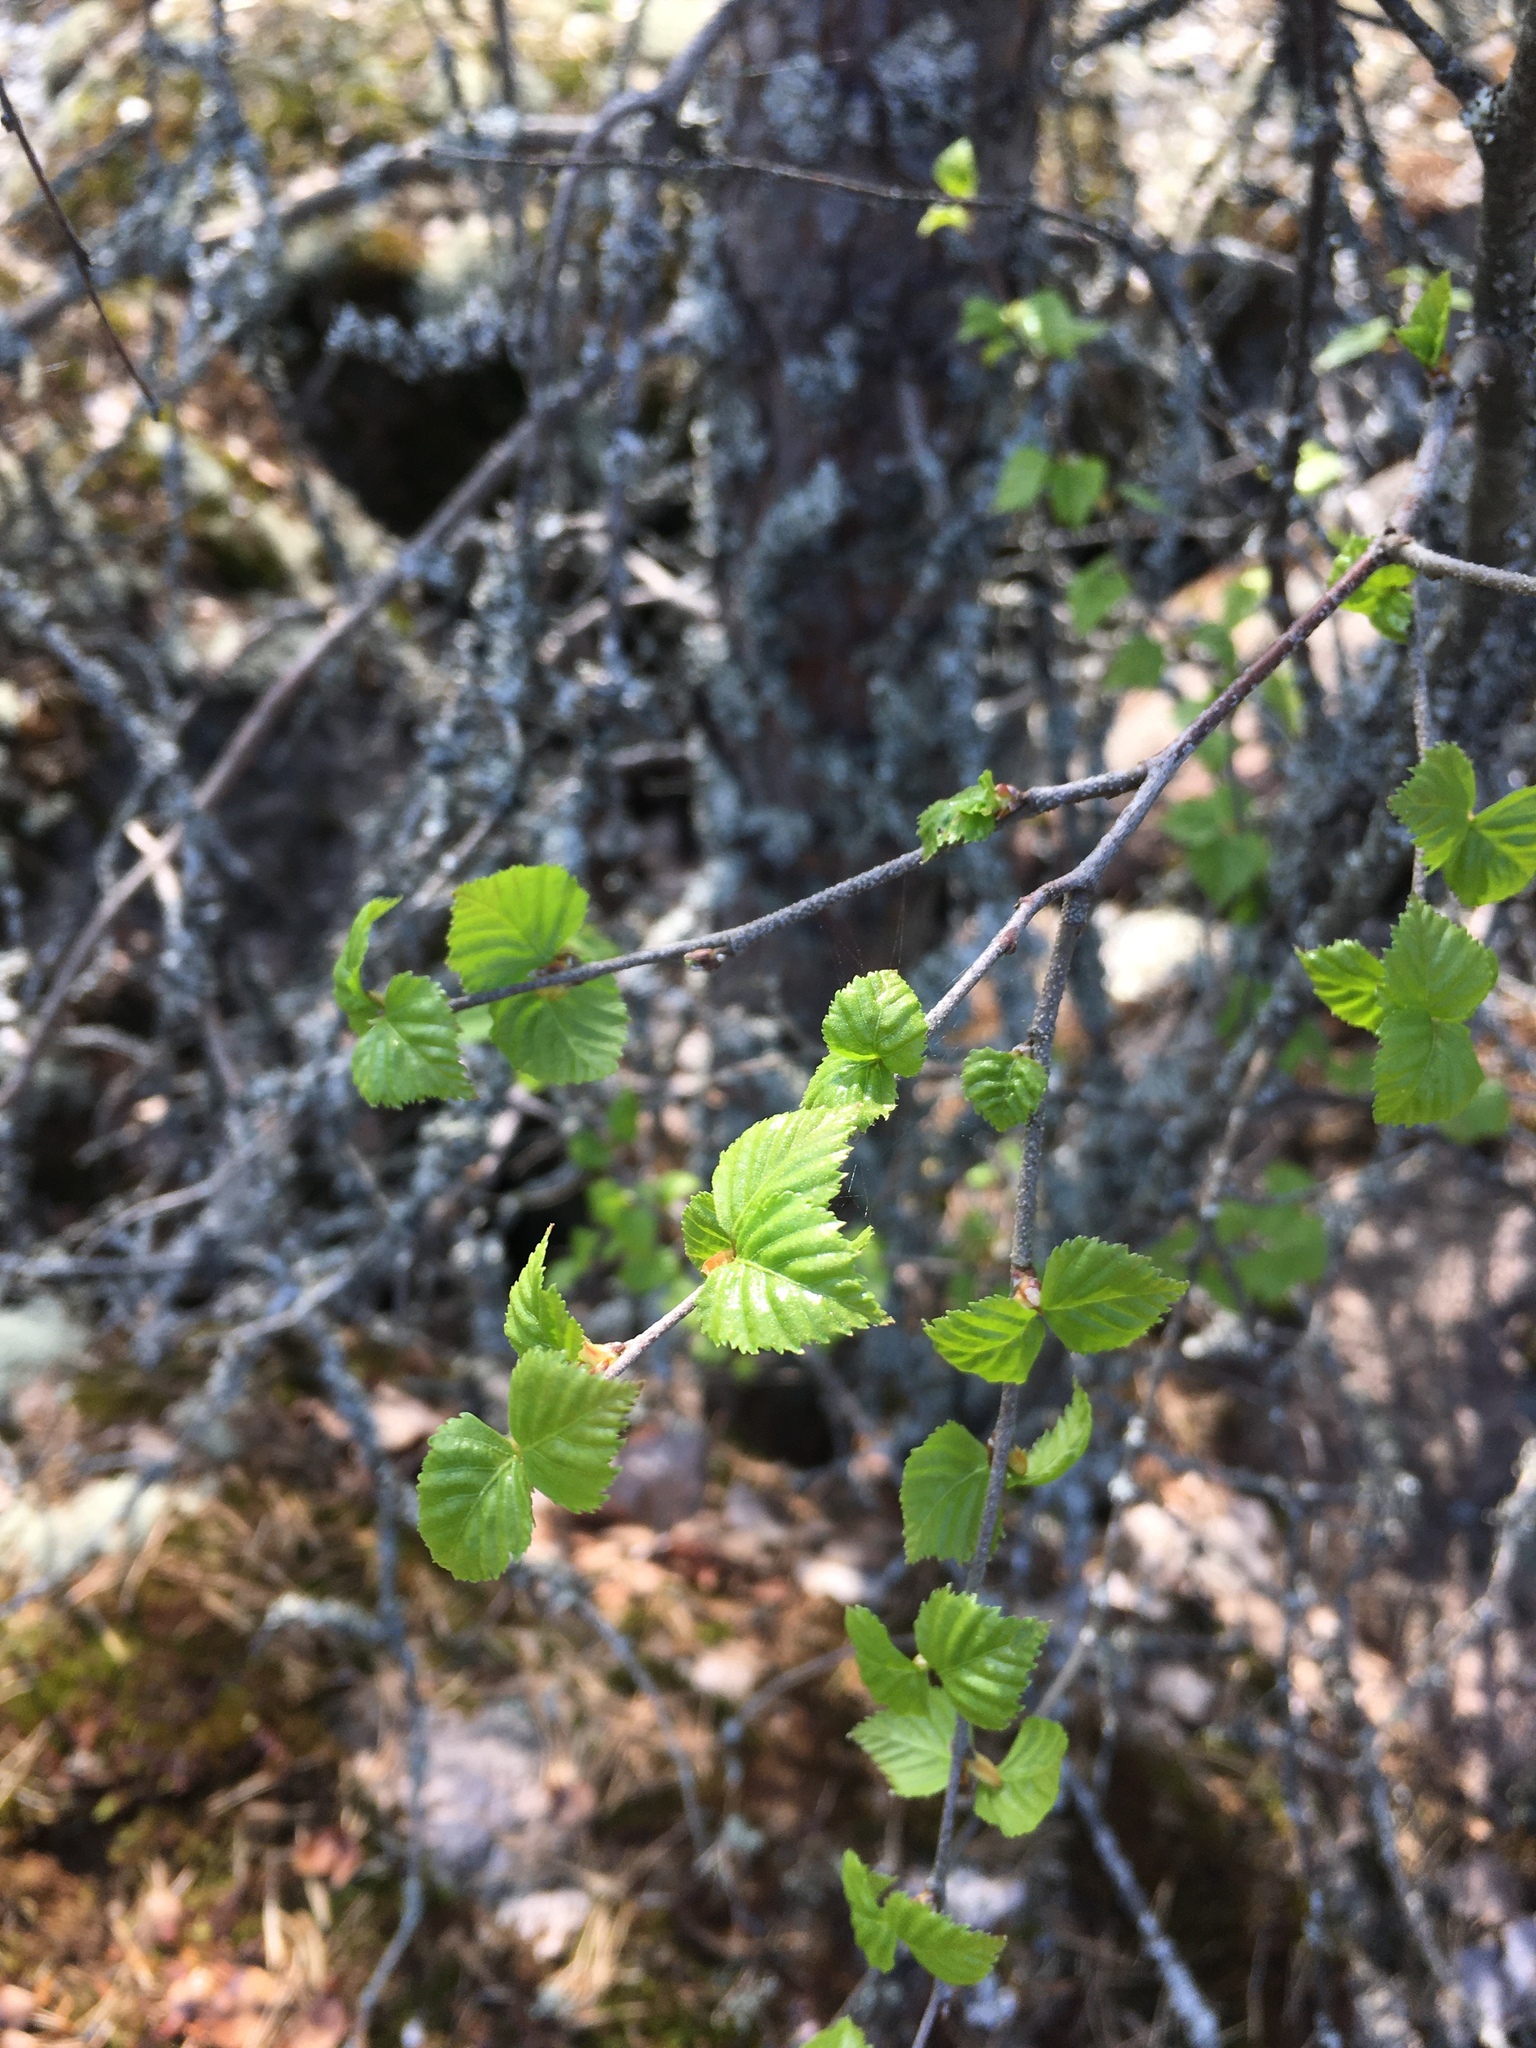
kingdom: Plantae
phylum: Tracheophyta
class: Magnoliopsida
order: Fagales
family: Betulaceae
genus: Betula
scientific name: Betula pendula
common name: Silver birch
